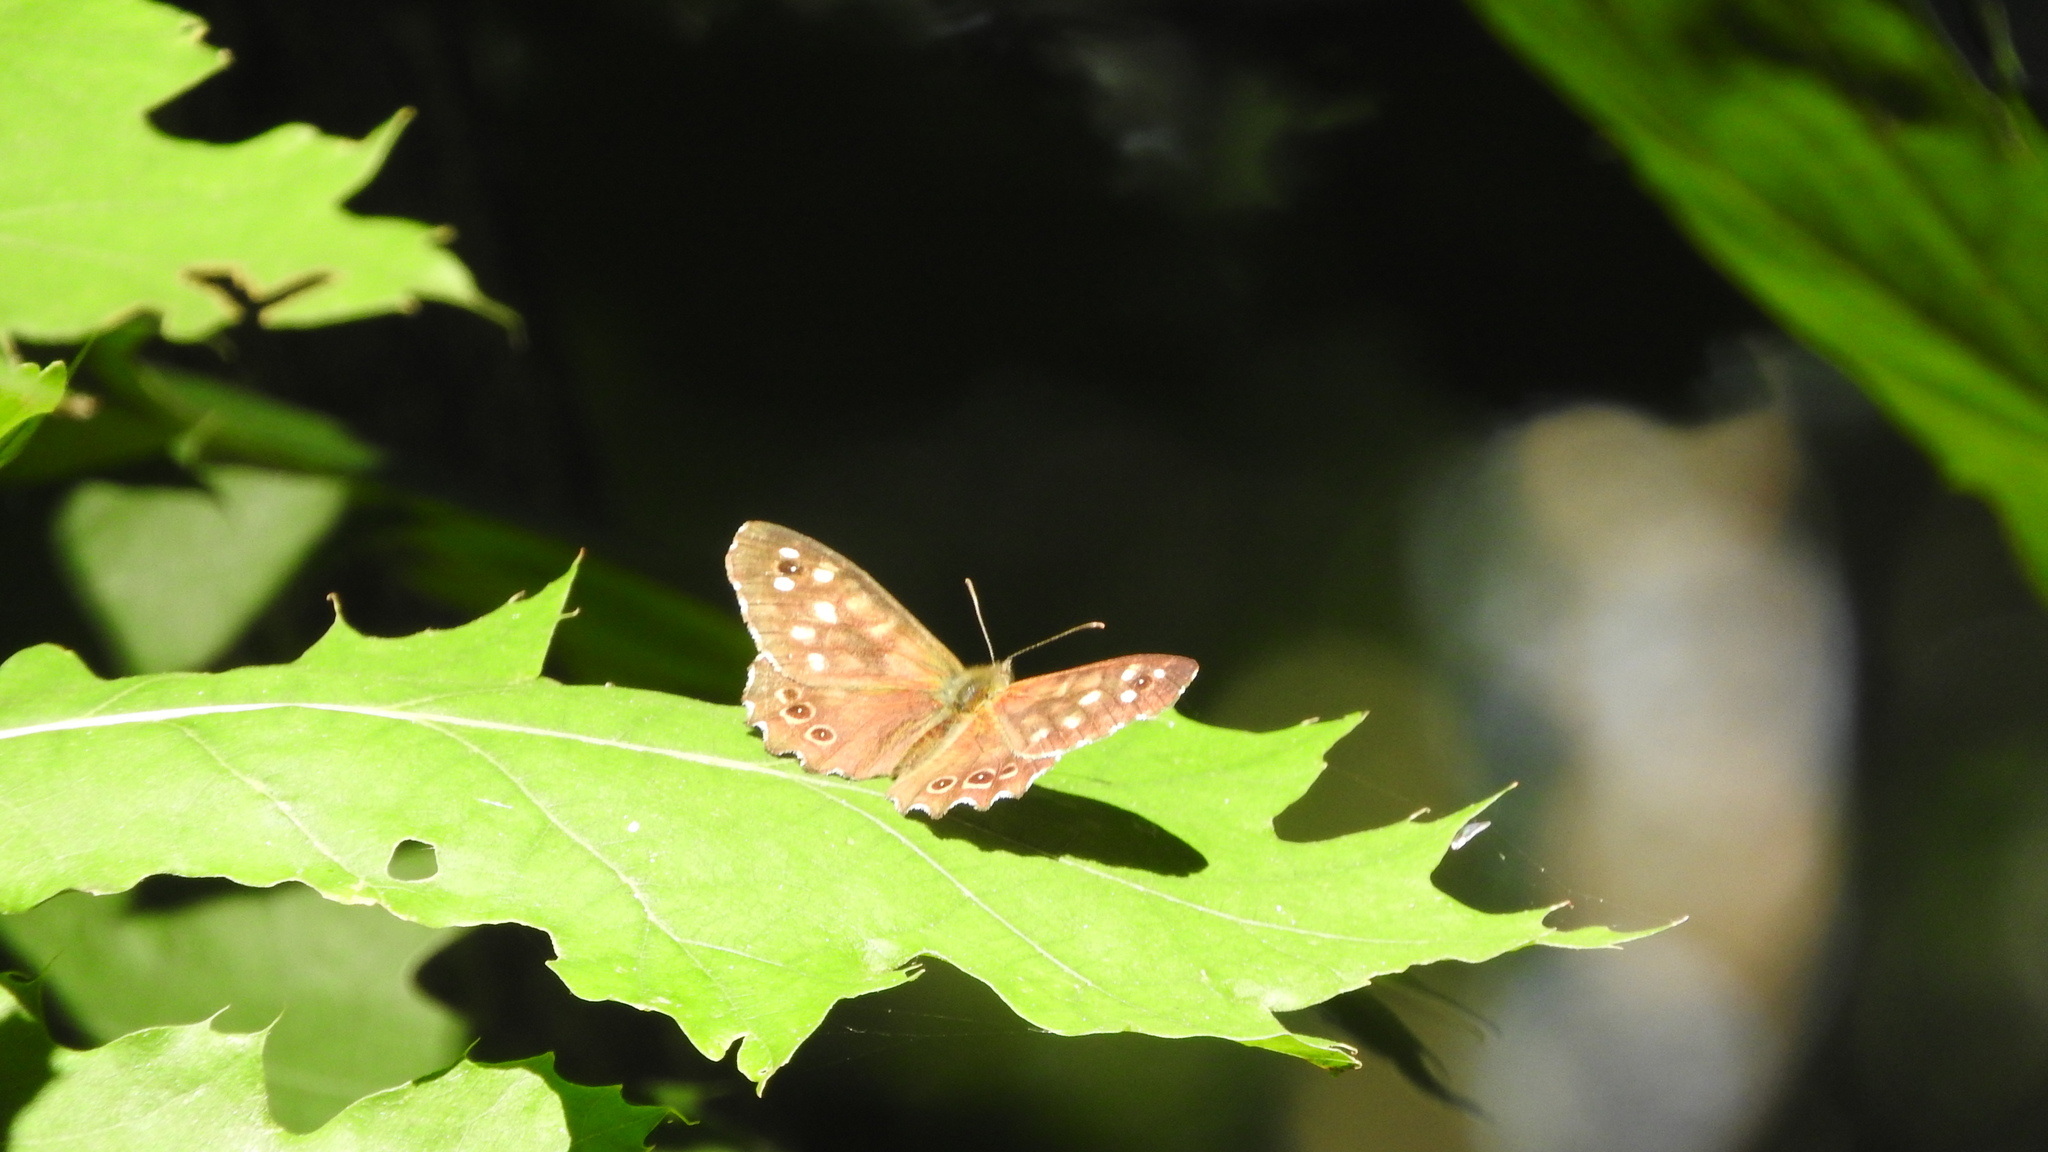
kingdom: Animalia
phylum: Arthropoda
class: Insecta
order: Lepidoptera
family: Nymphalidae
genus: Pararge
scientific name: Pararge aegeria
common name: Speckled wood
